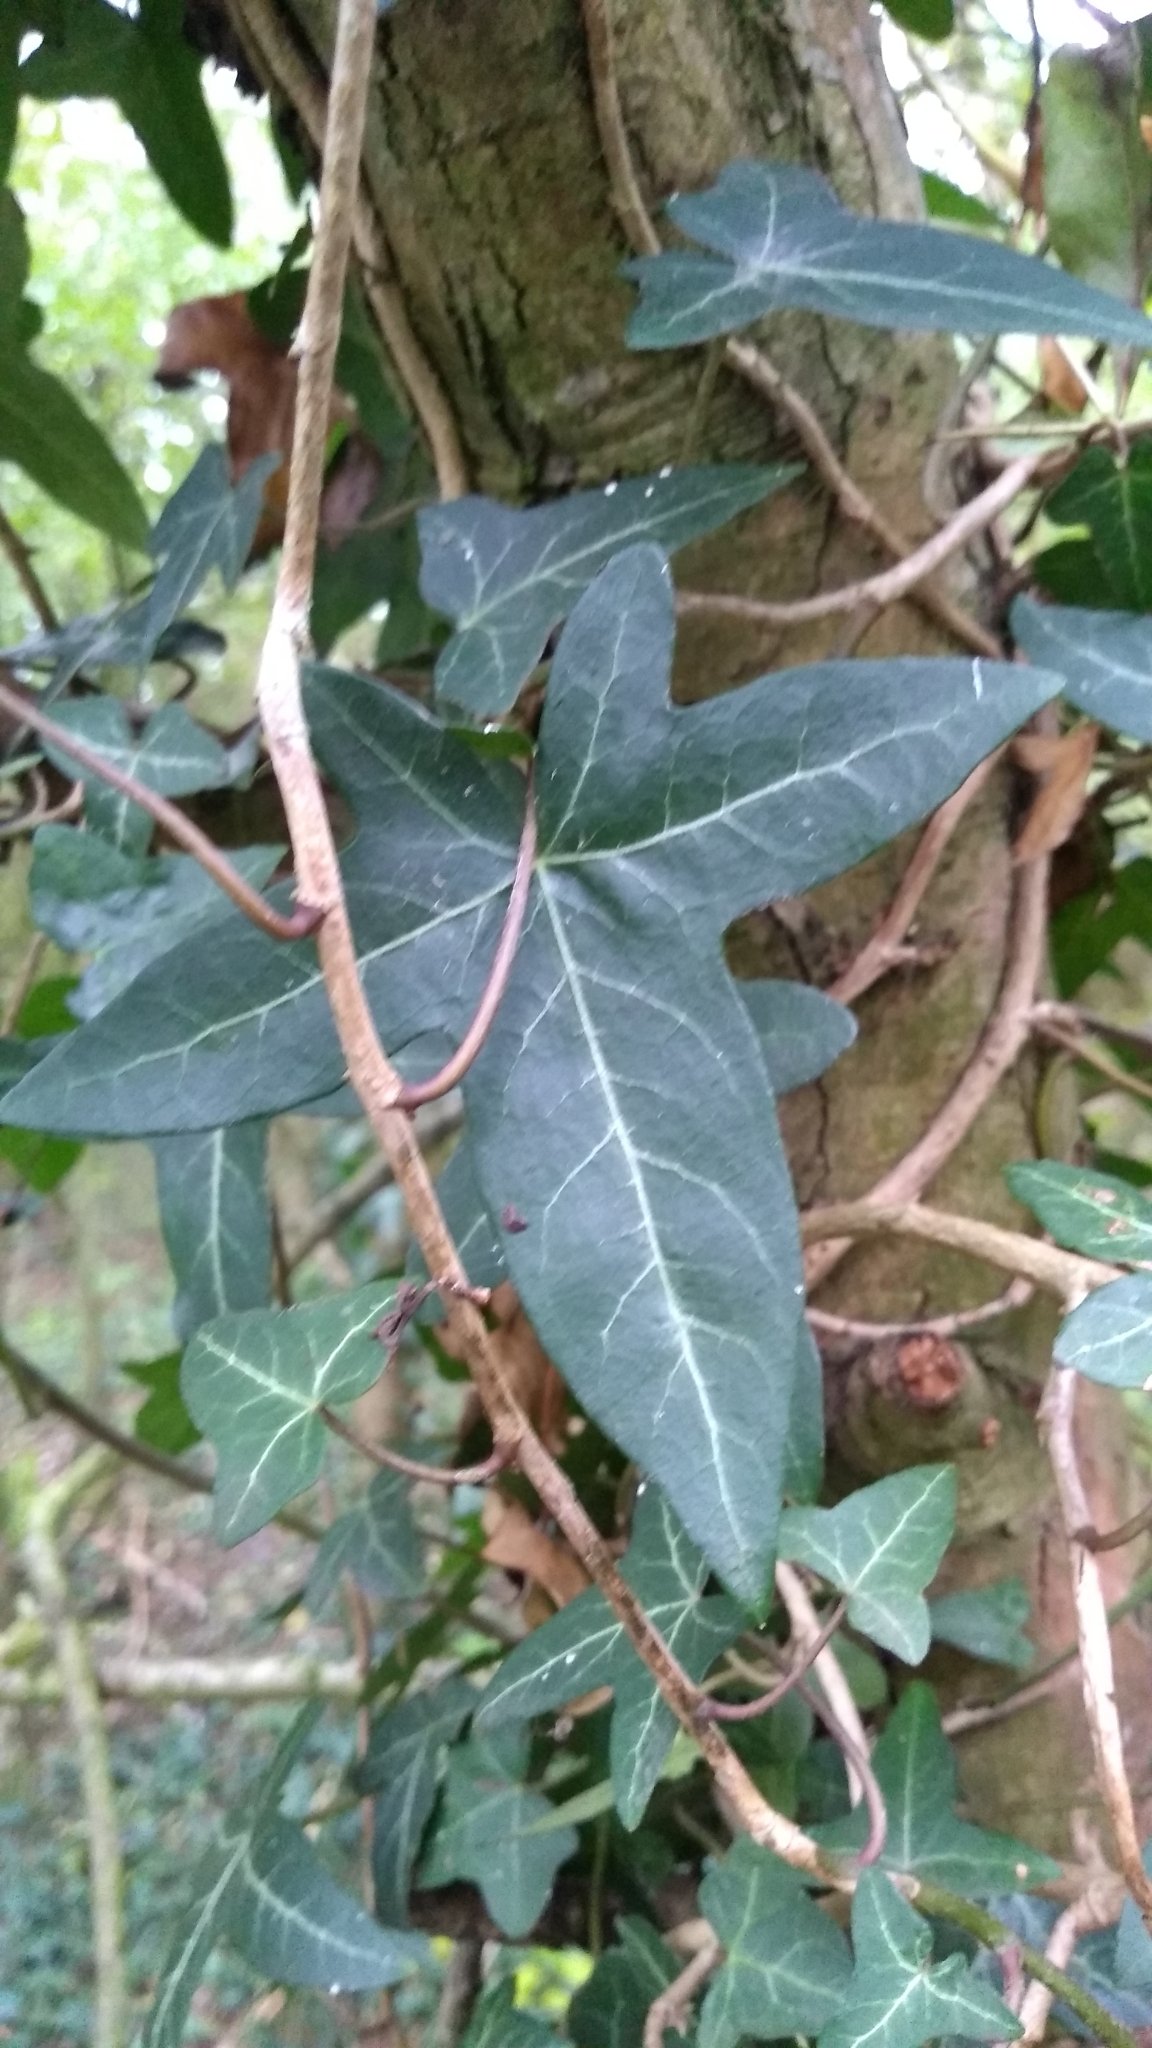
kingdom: Plantae
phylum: Tracheophyta
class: Magnoliopsida
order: Apiales
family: Araliaceae
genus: Hedera
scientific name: Hedera helix
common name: Ivy
